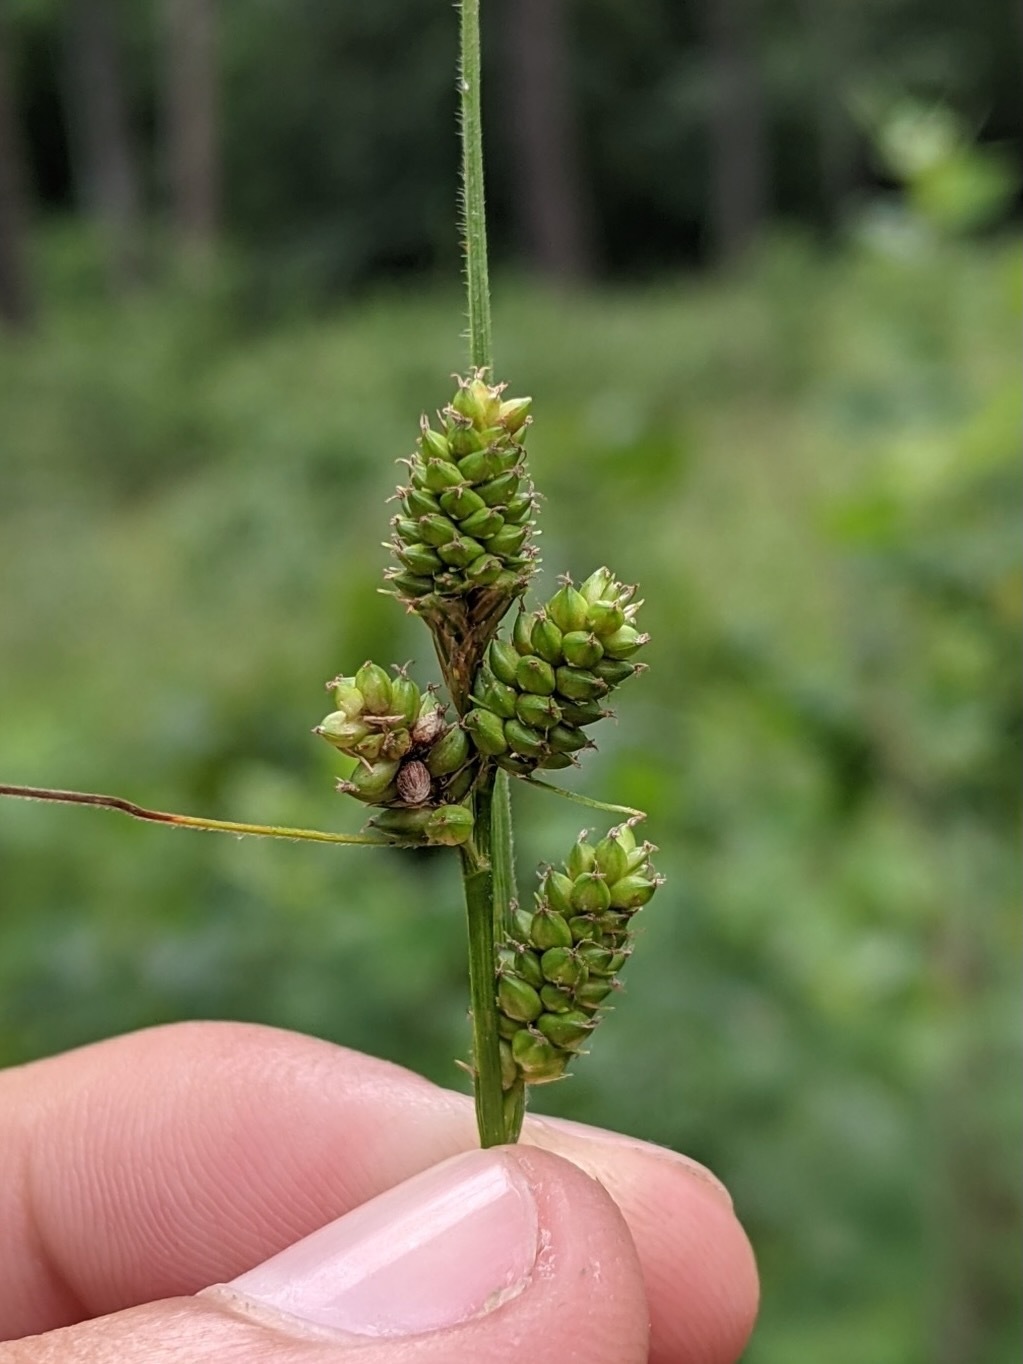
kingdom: Plantae
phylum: Tracheophyta
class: Liliopsida
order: Poales
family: Cyperaceae
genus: Carex
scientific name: Carex hirsutella
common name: Fuzzy wuzzy sedge
